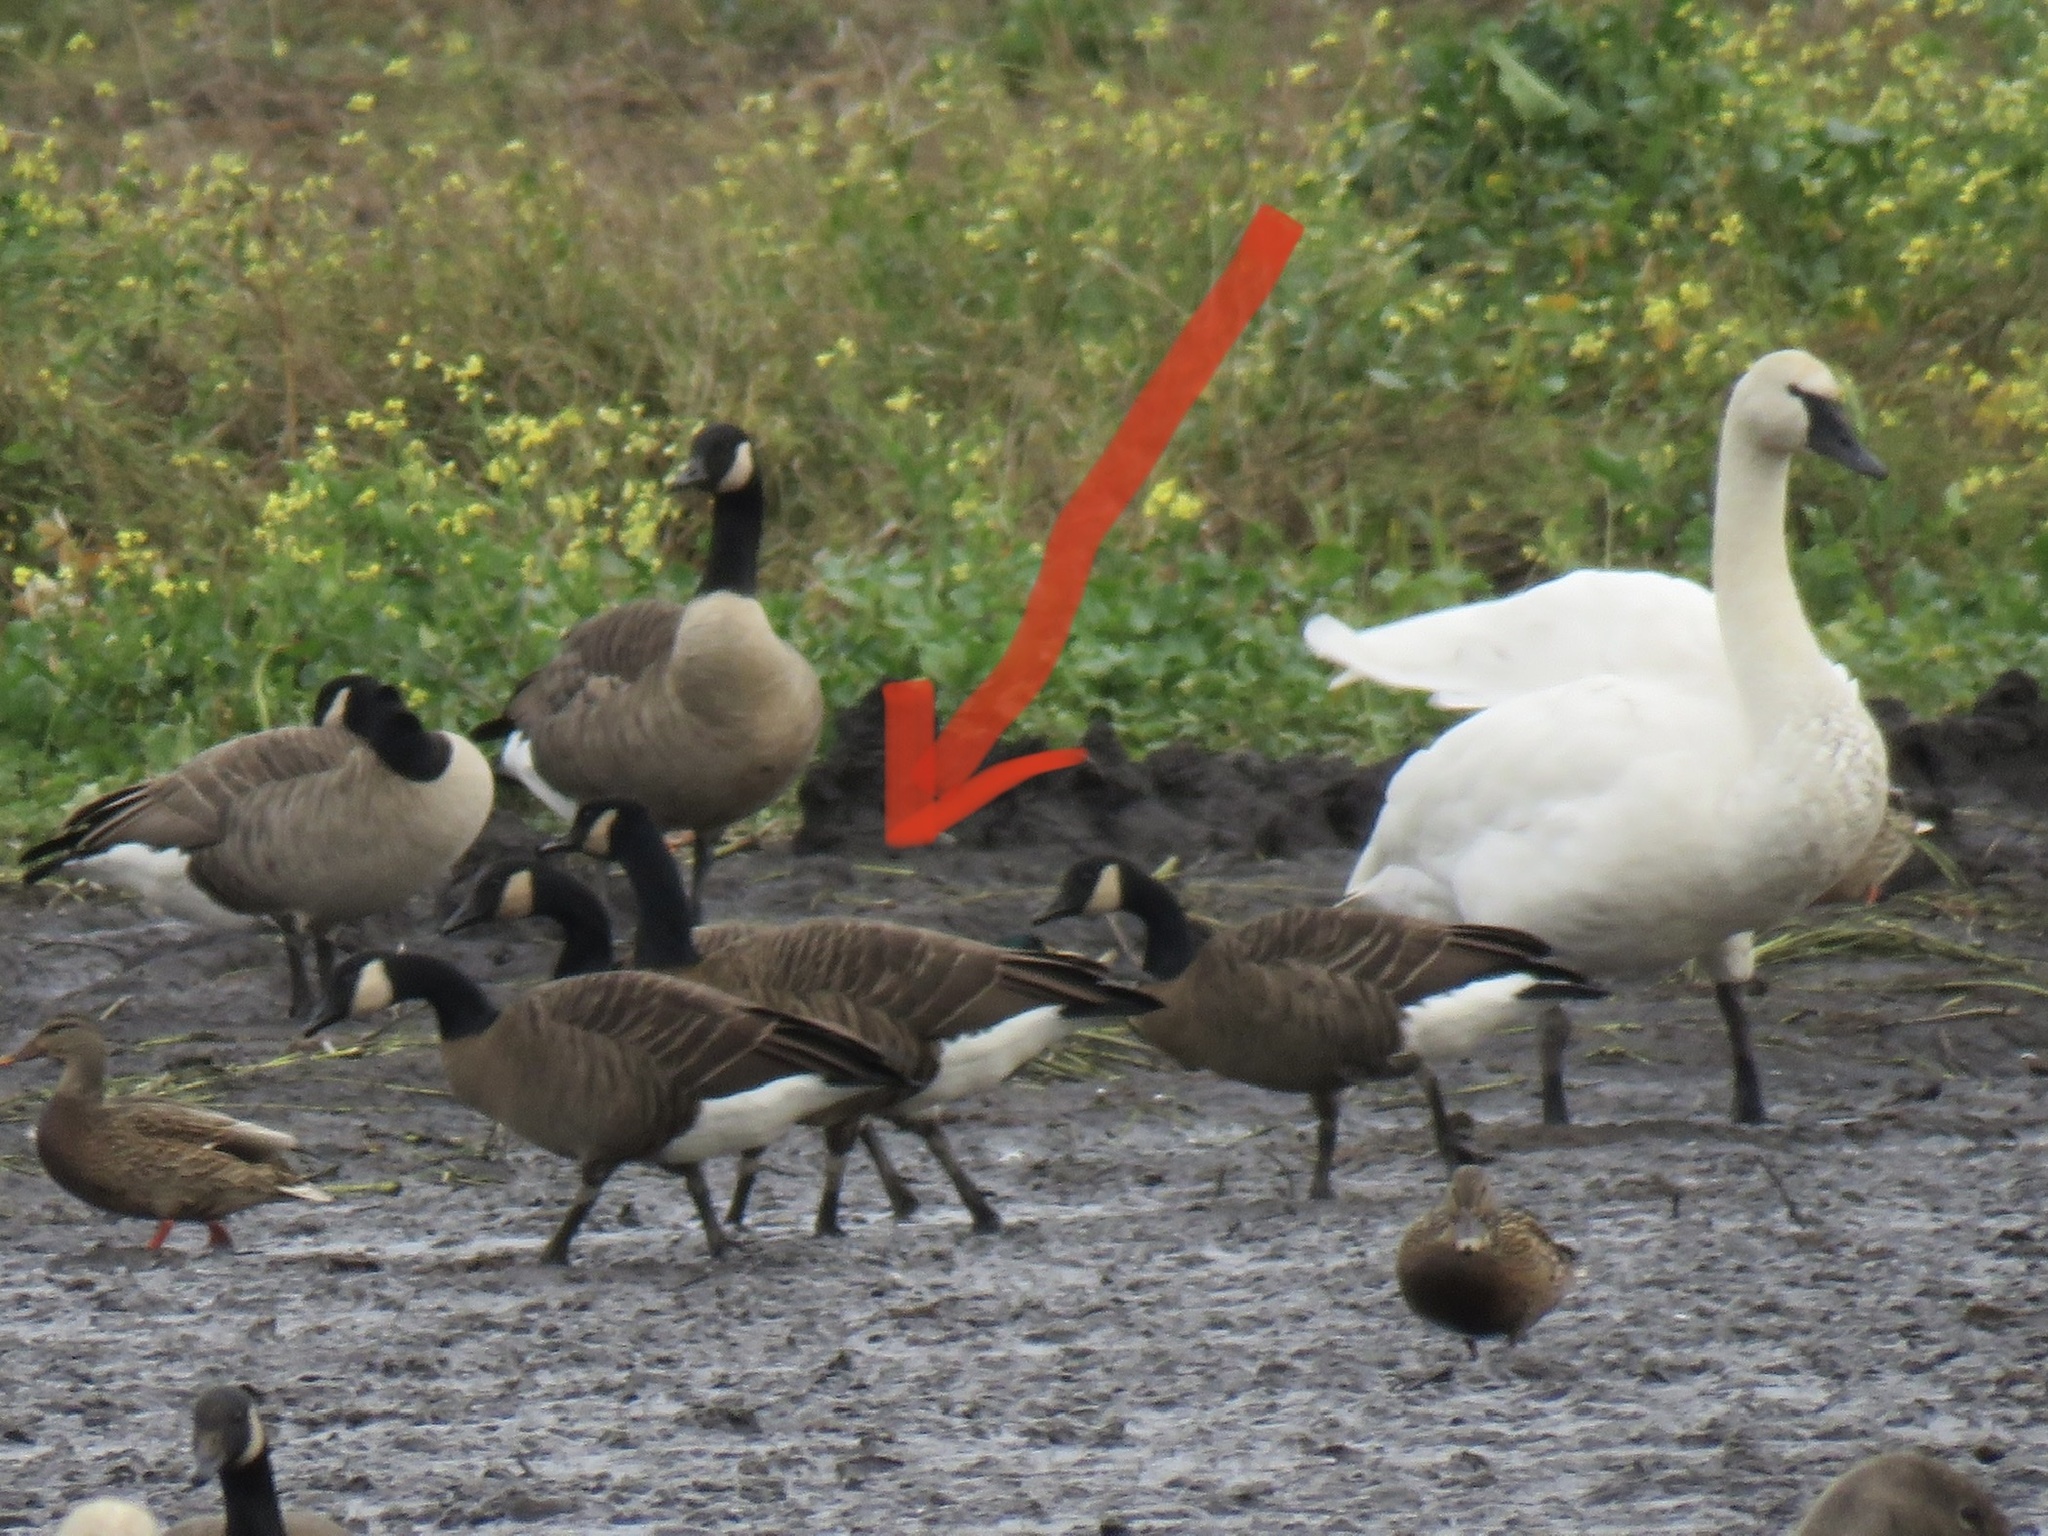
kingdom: Animalia
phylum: Chordata
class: Aves
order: Anseriformes
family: Anatidae
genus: Branta
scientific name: Branta hutchinsii
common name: Cackling goose
